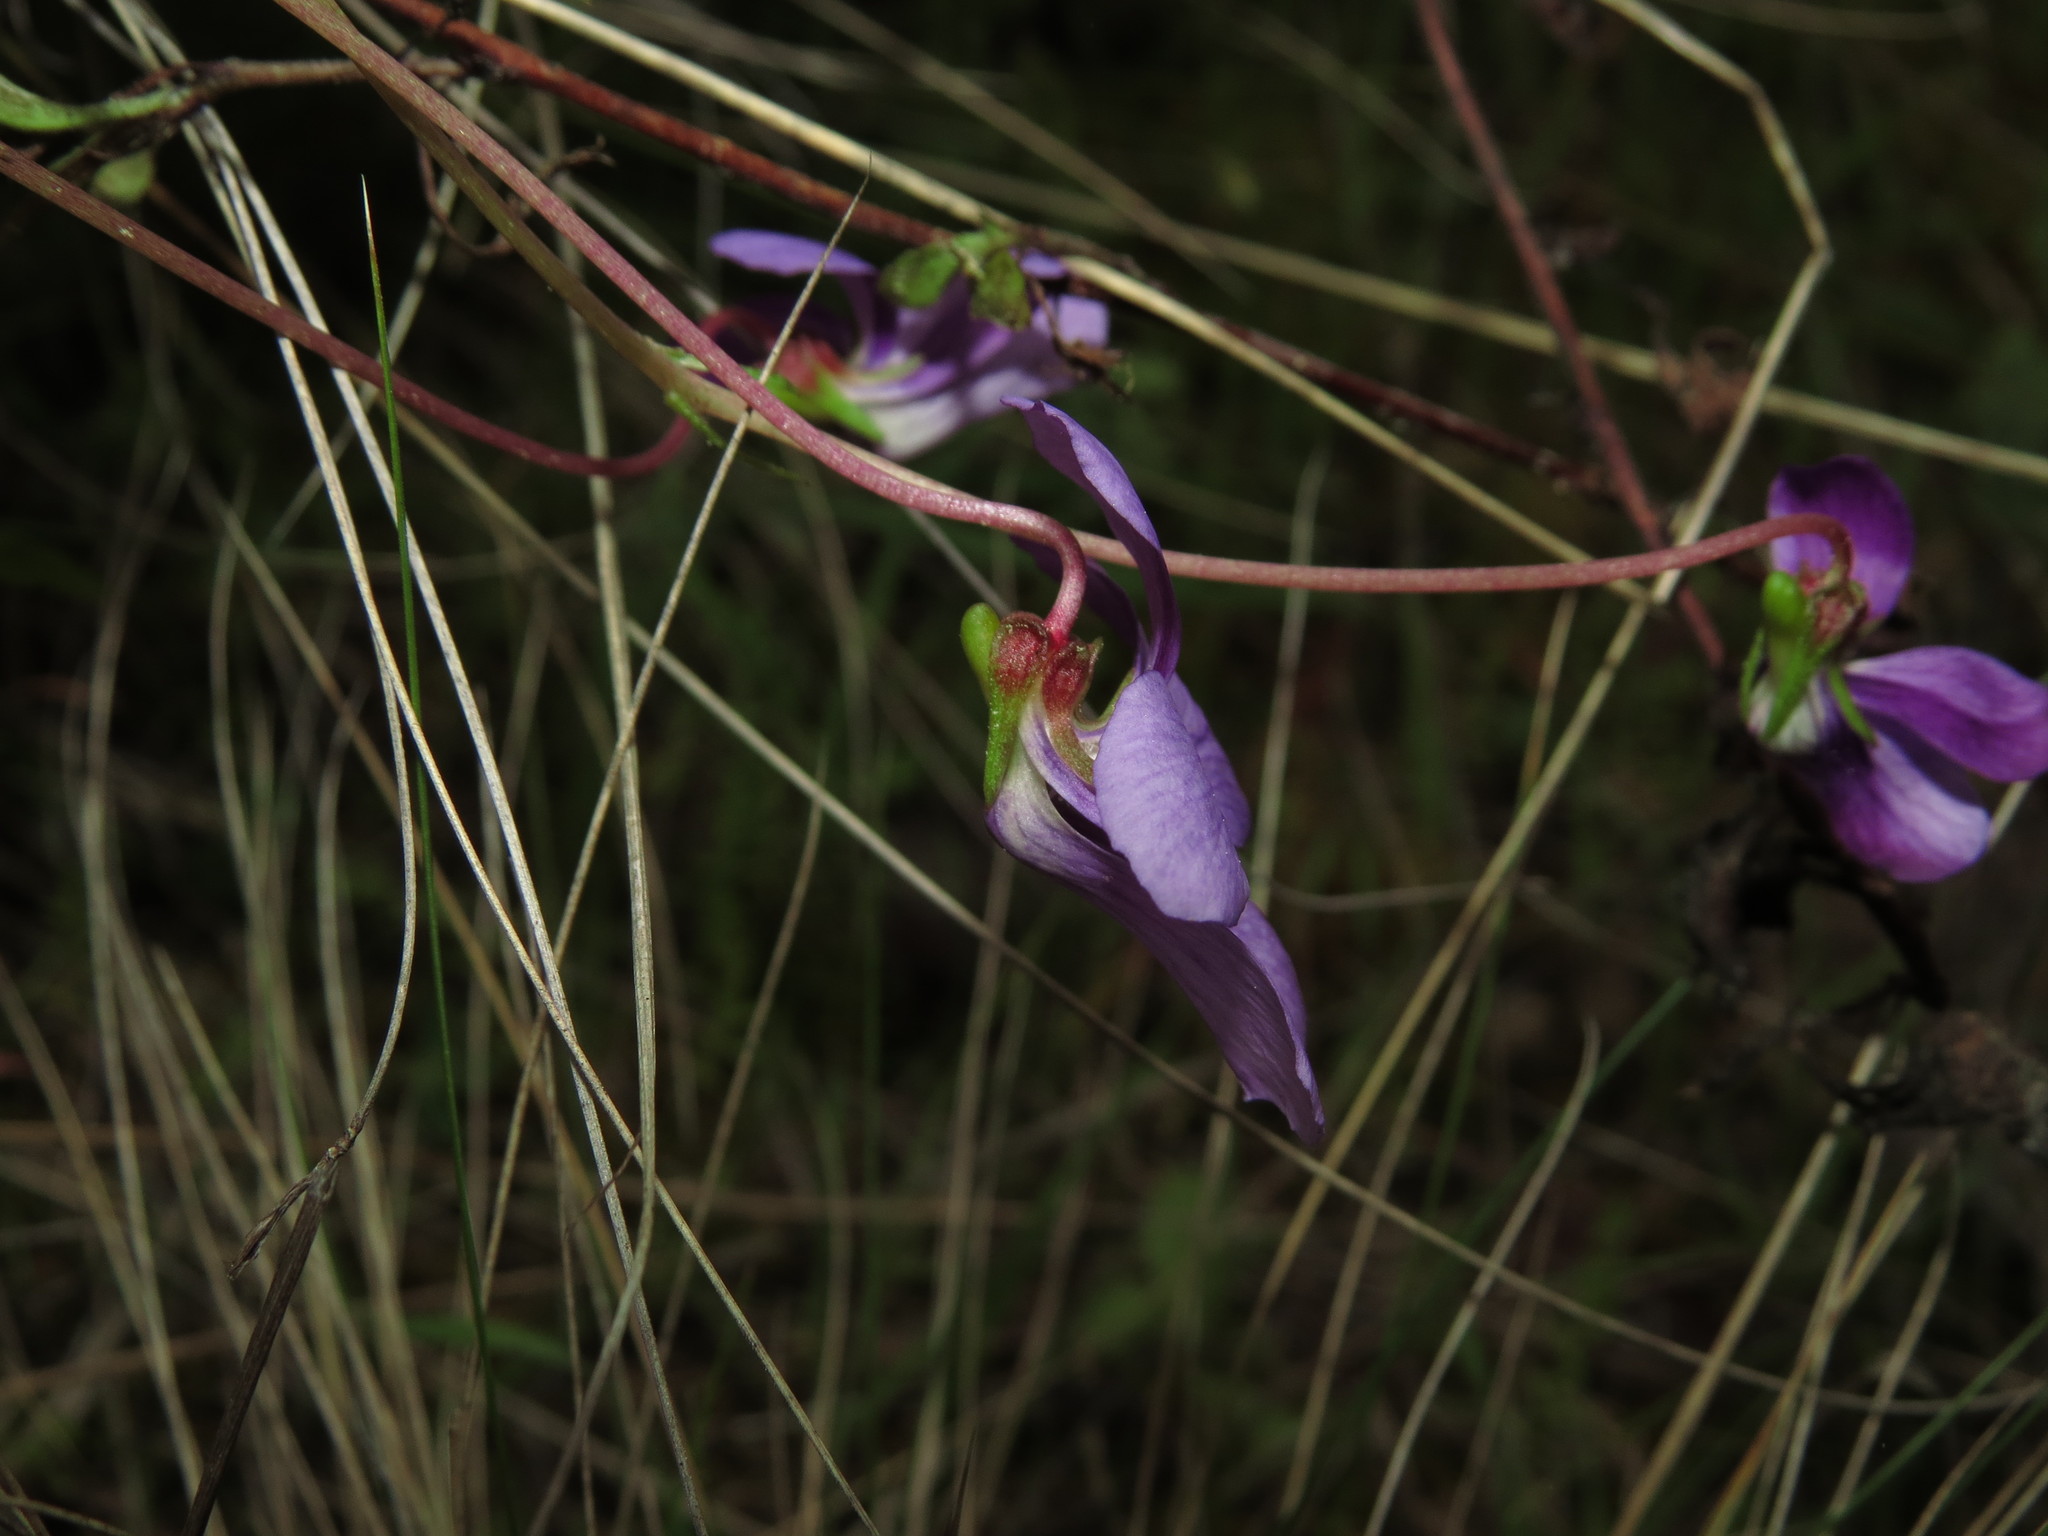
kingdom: Plantae
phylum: Tracheophyta
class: Magnoliopsida
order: Malpighiales
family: Violaceae
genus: Viola
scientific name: Viola portalesia
